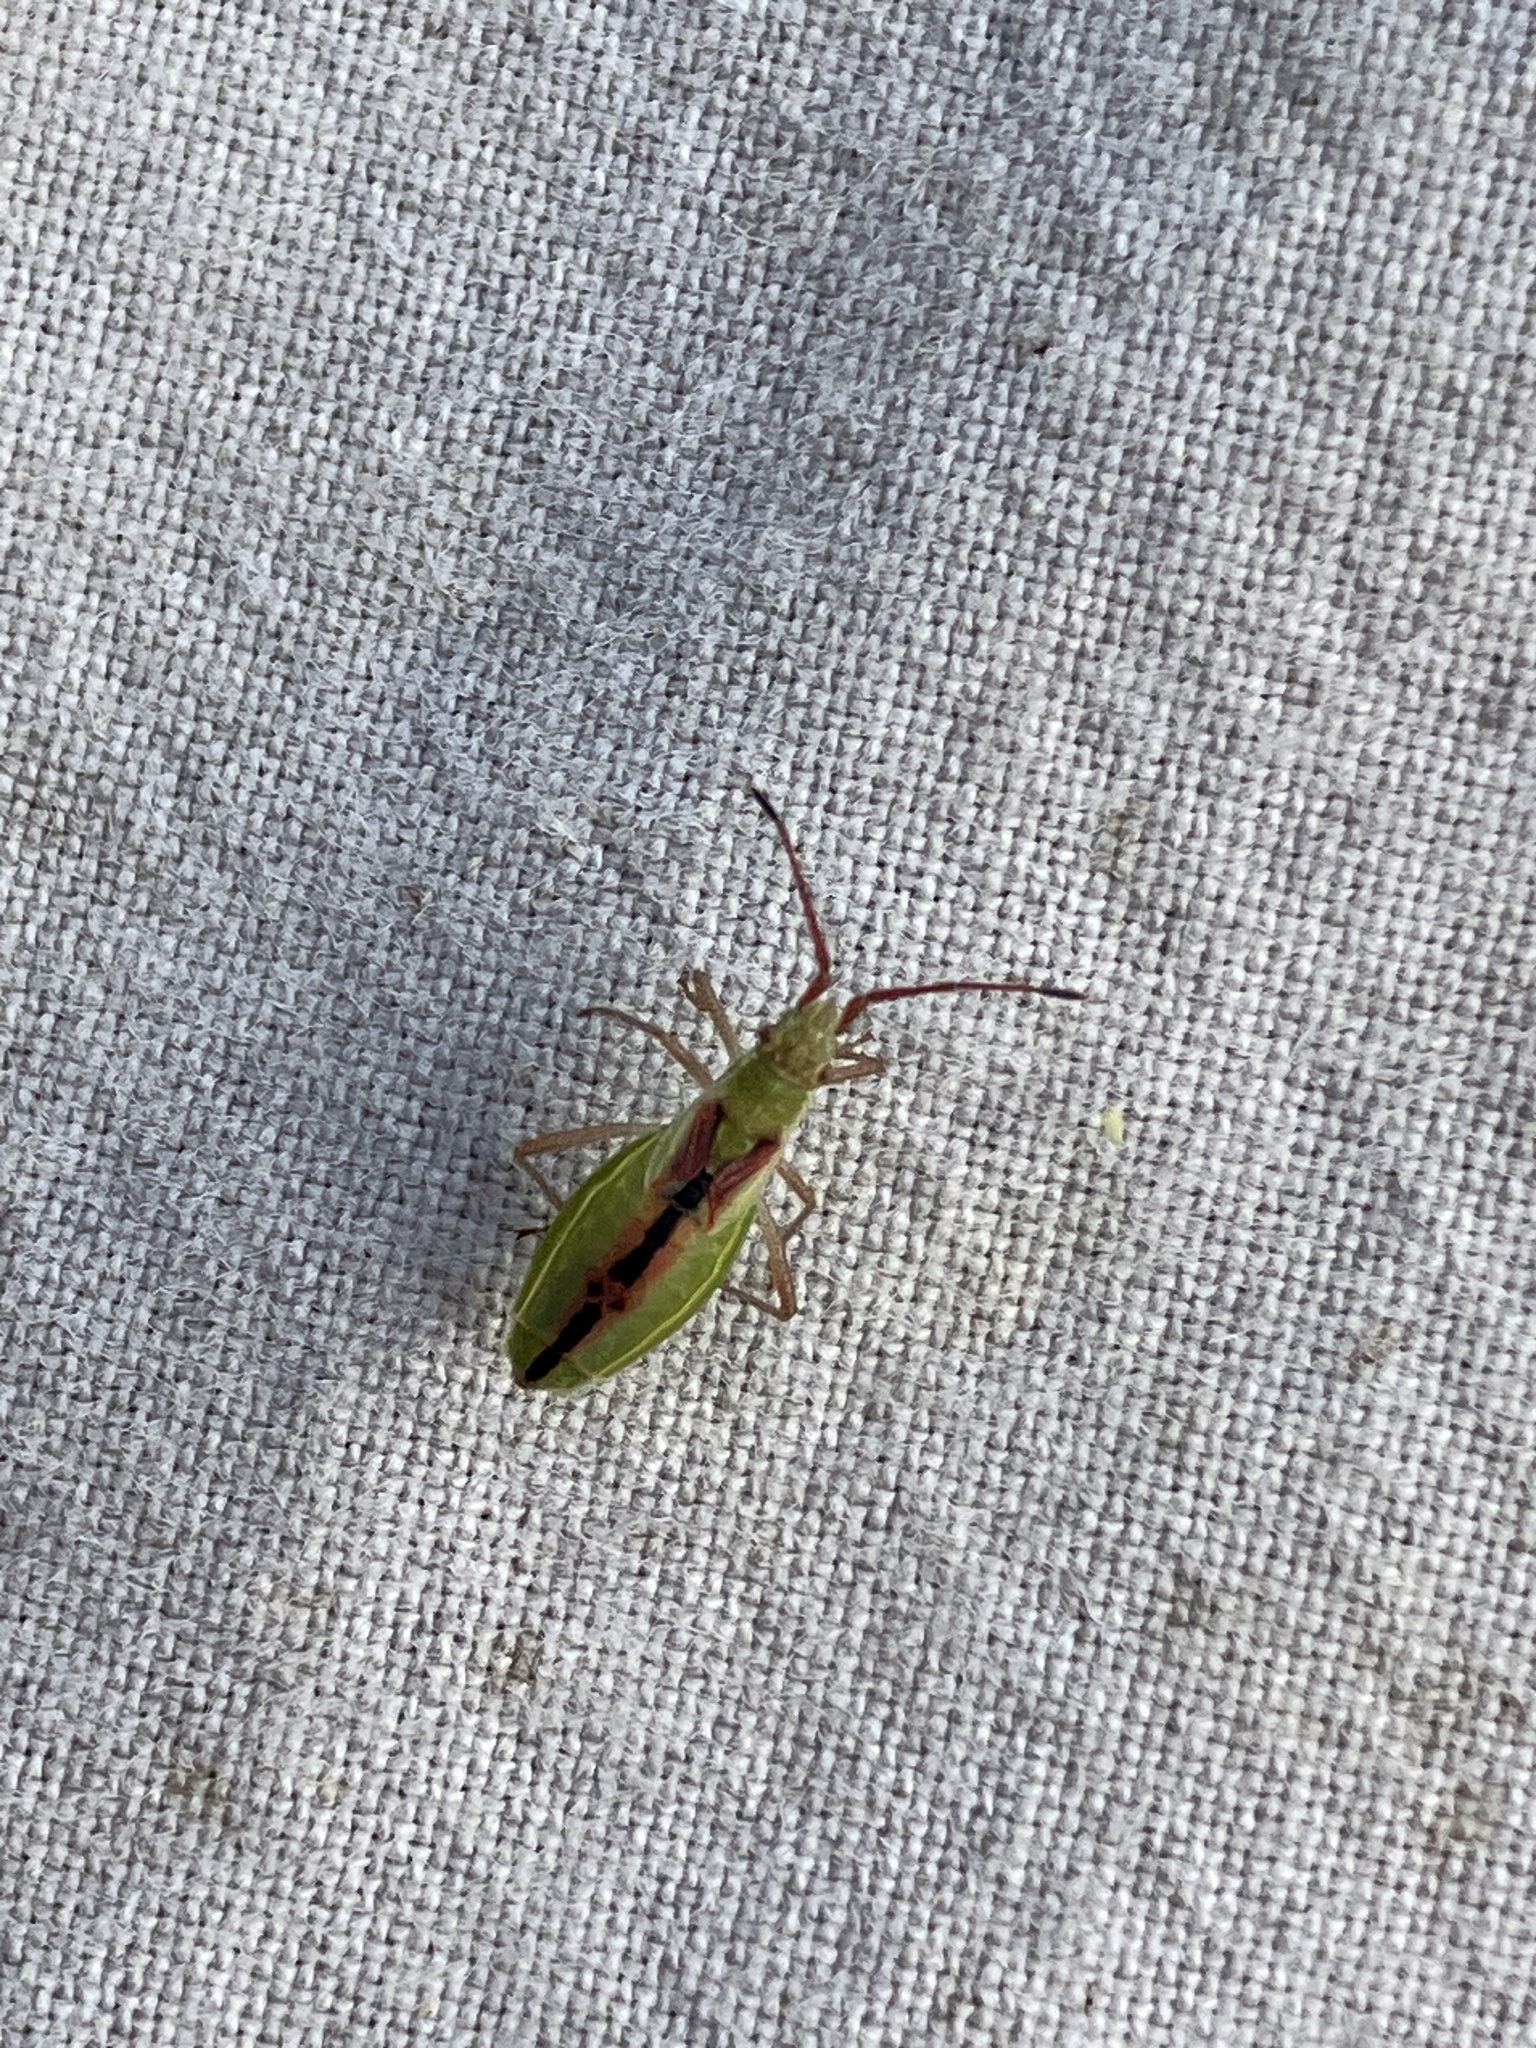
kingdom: Animalia
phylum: Arthropoda
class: Insecta
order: Hemiptera
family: Rhopalidae
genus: Myrmus
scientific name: Myrmus miriformis
